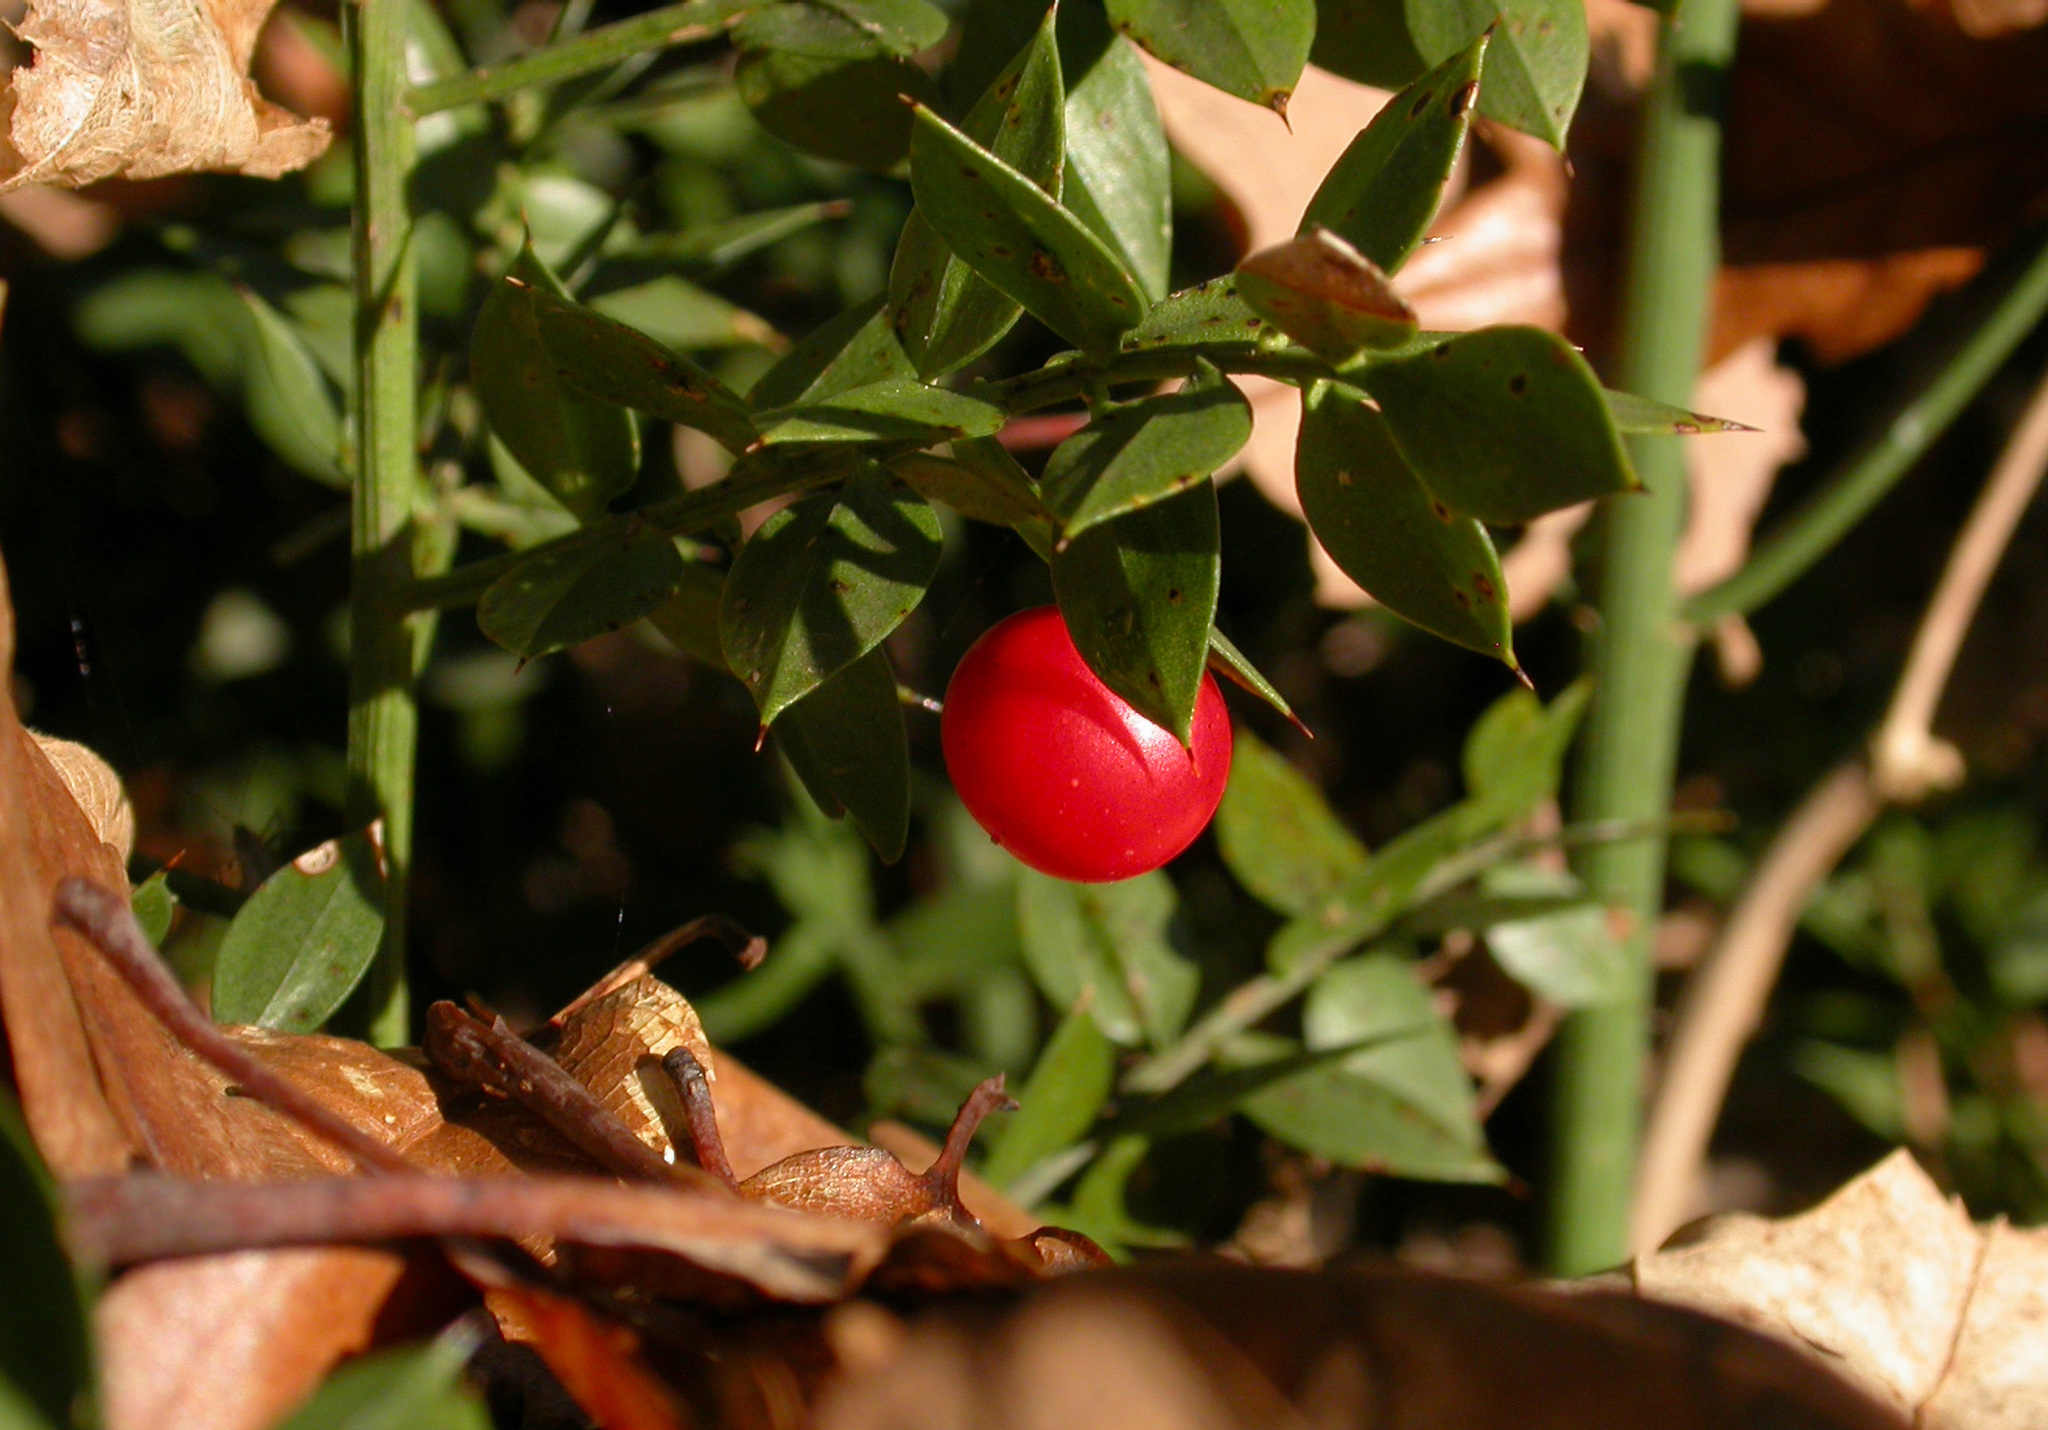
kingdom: Plantae
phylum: Tracheophyta
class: Liliopsida
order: Asparagales
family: Asparagaceae
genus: Ruscus
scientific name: Ruscus aculeatus
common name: Butcher's-broom
